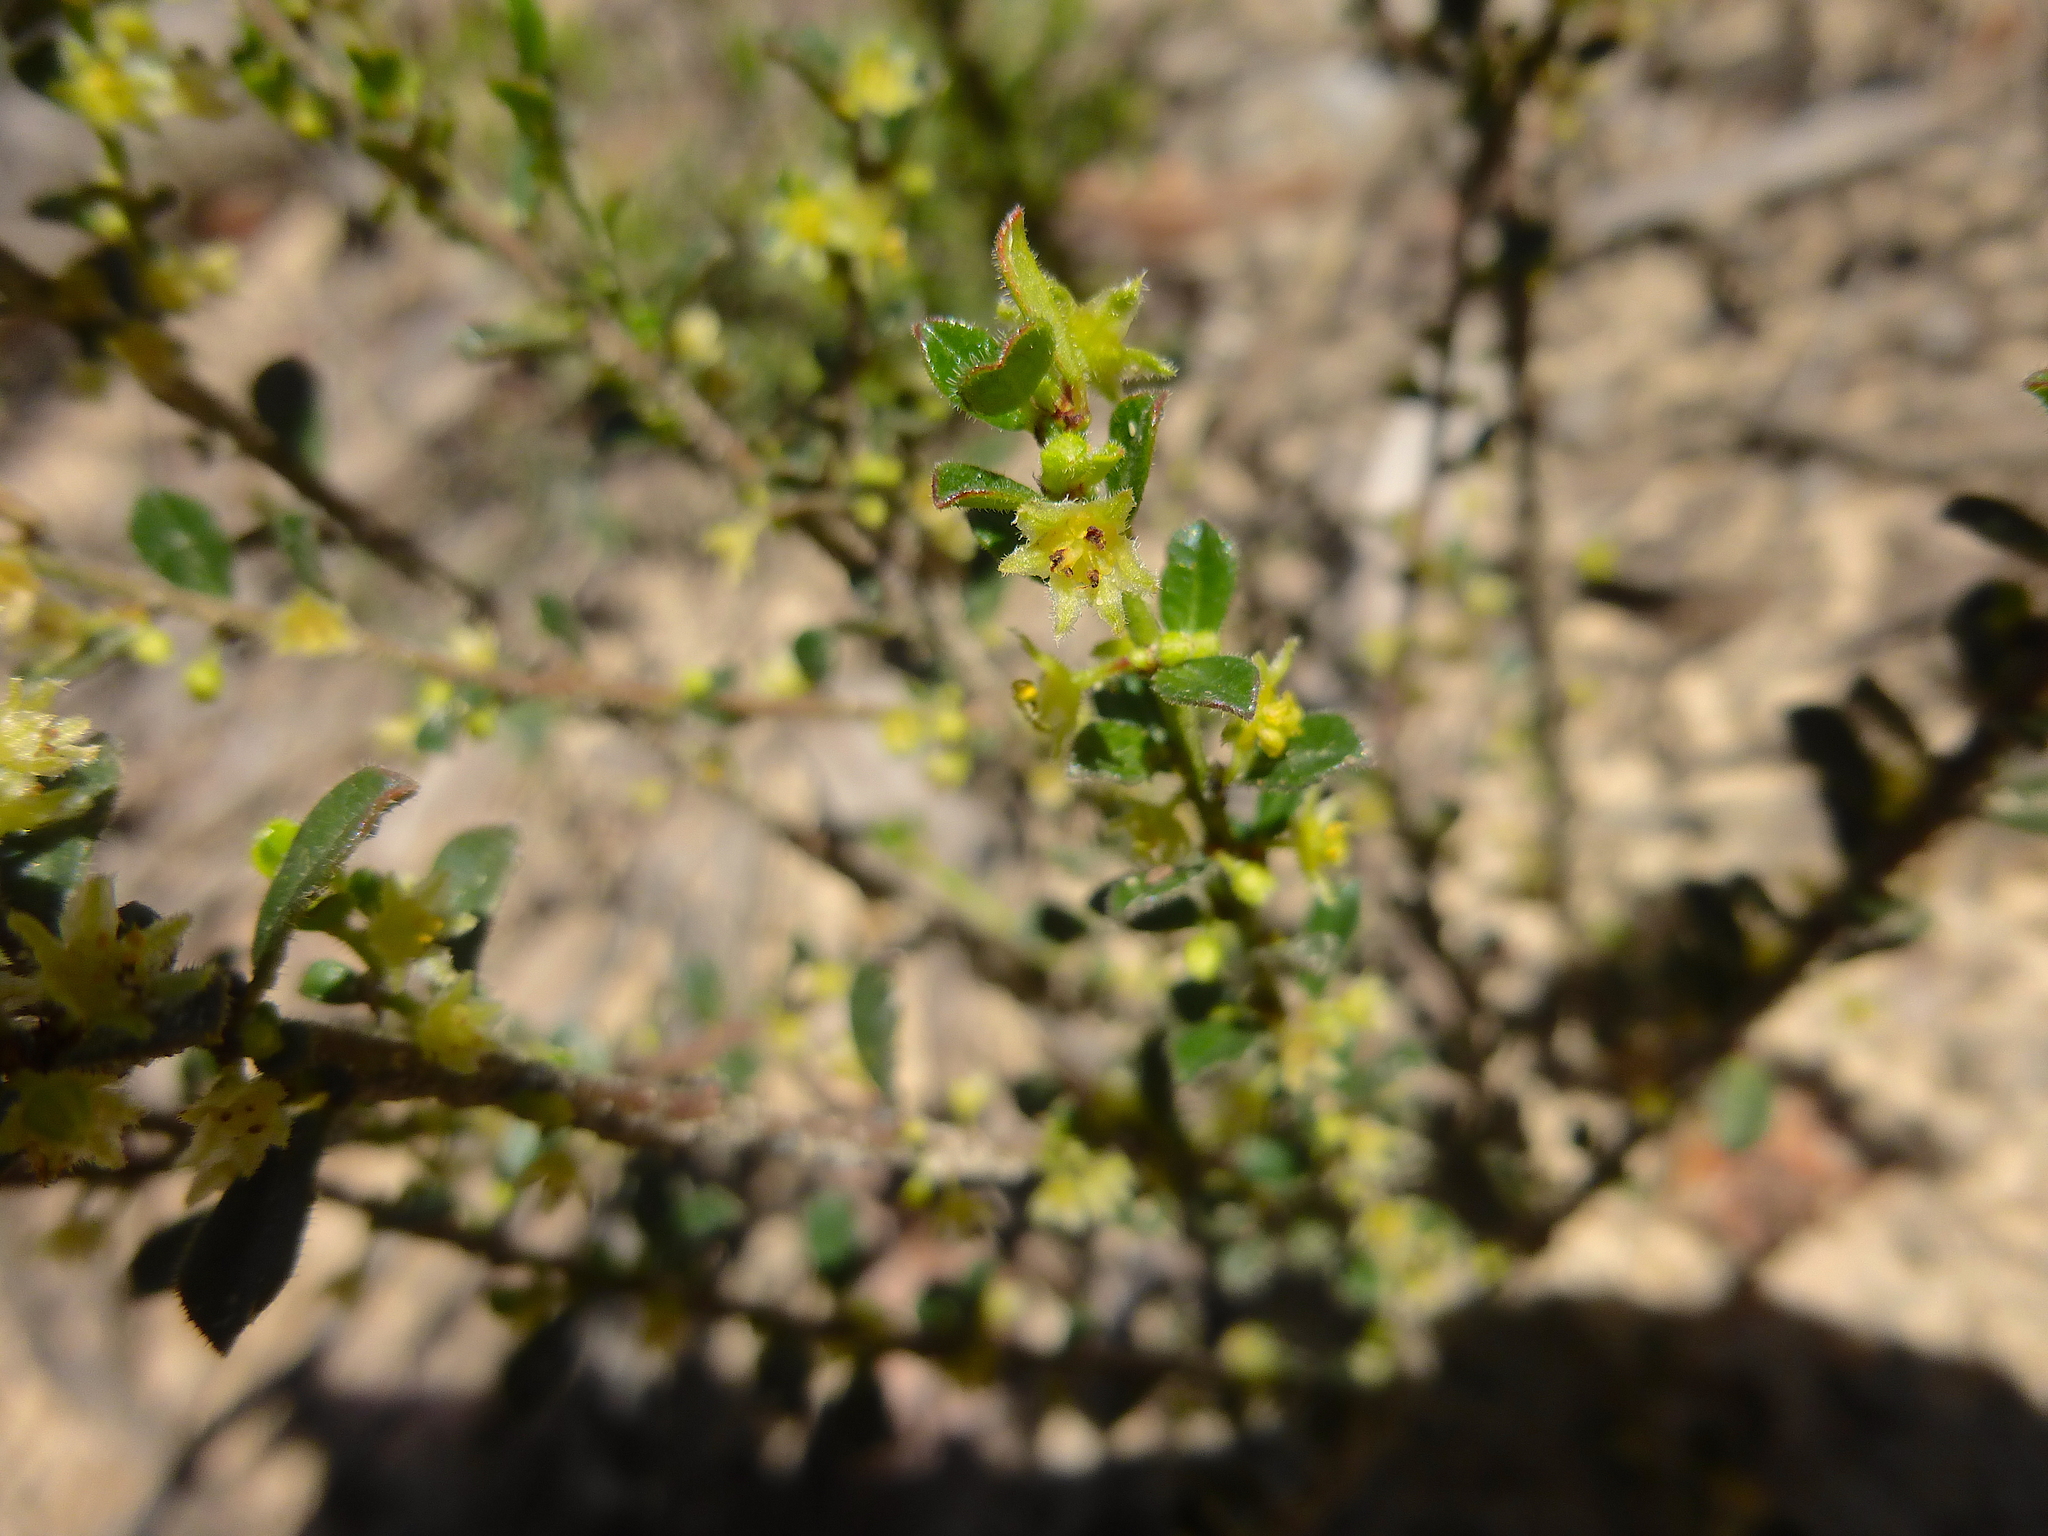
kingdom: Plantae
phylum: Tracheophyta
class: Magnoliopsida
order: Malpighiales
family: Phyllanthaceae
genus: Phyllanthus
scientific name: Phyllanthus hirtellus
